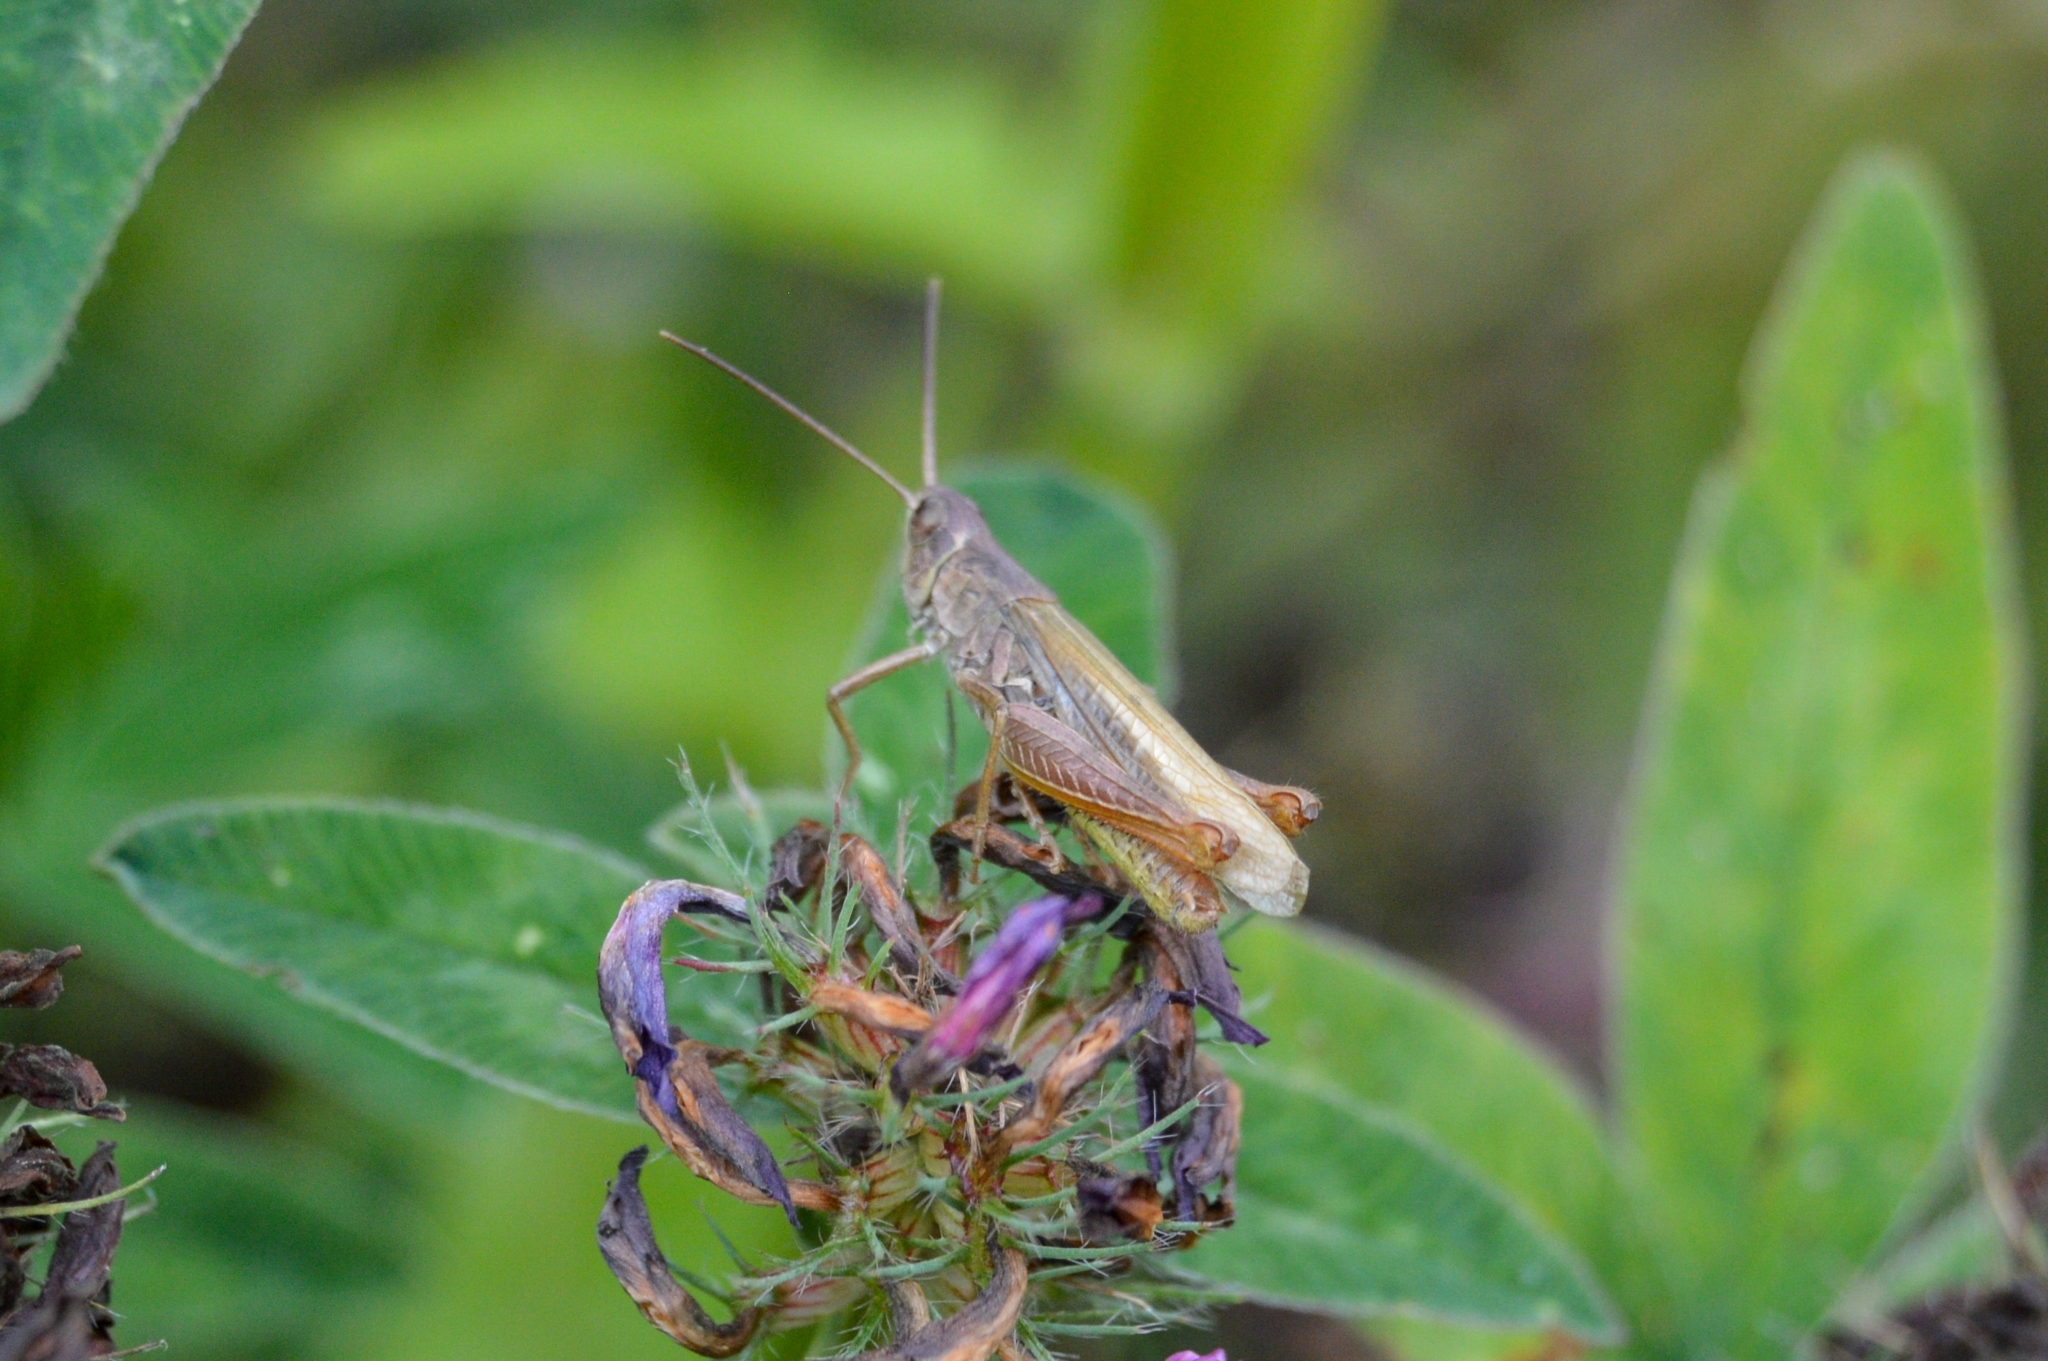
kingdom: Animalia
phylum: Arthropoda
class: Insecta
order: Orthoptera
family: Acrididae
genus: Chorthippus
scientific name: Chorthippus apricarius
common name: Upland field grasshopper
